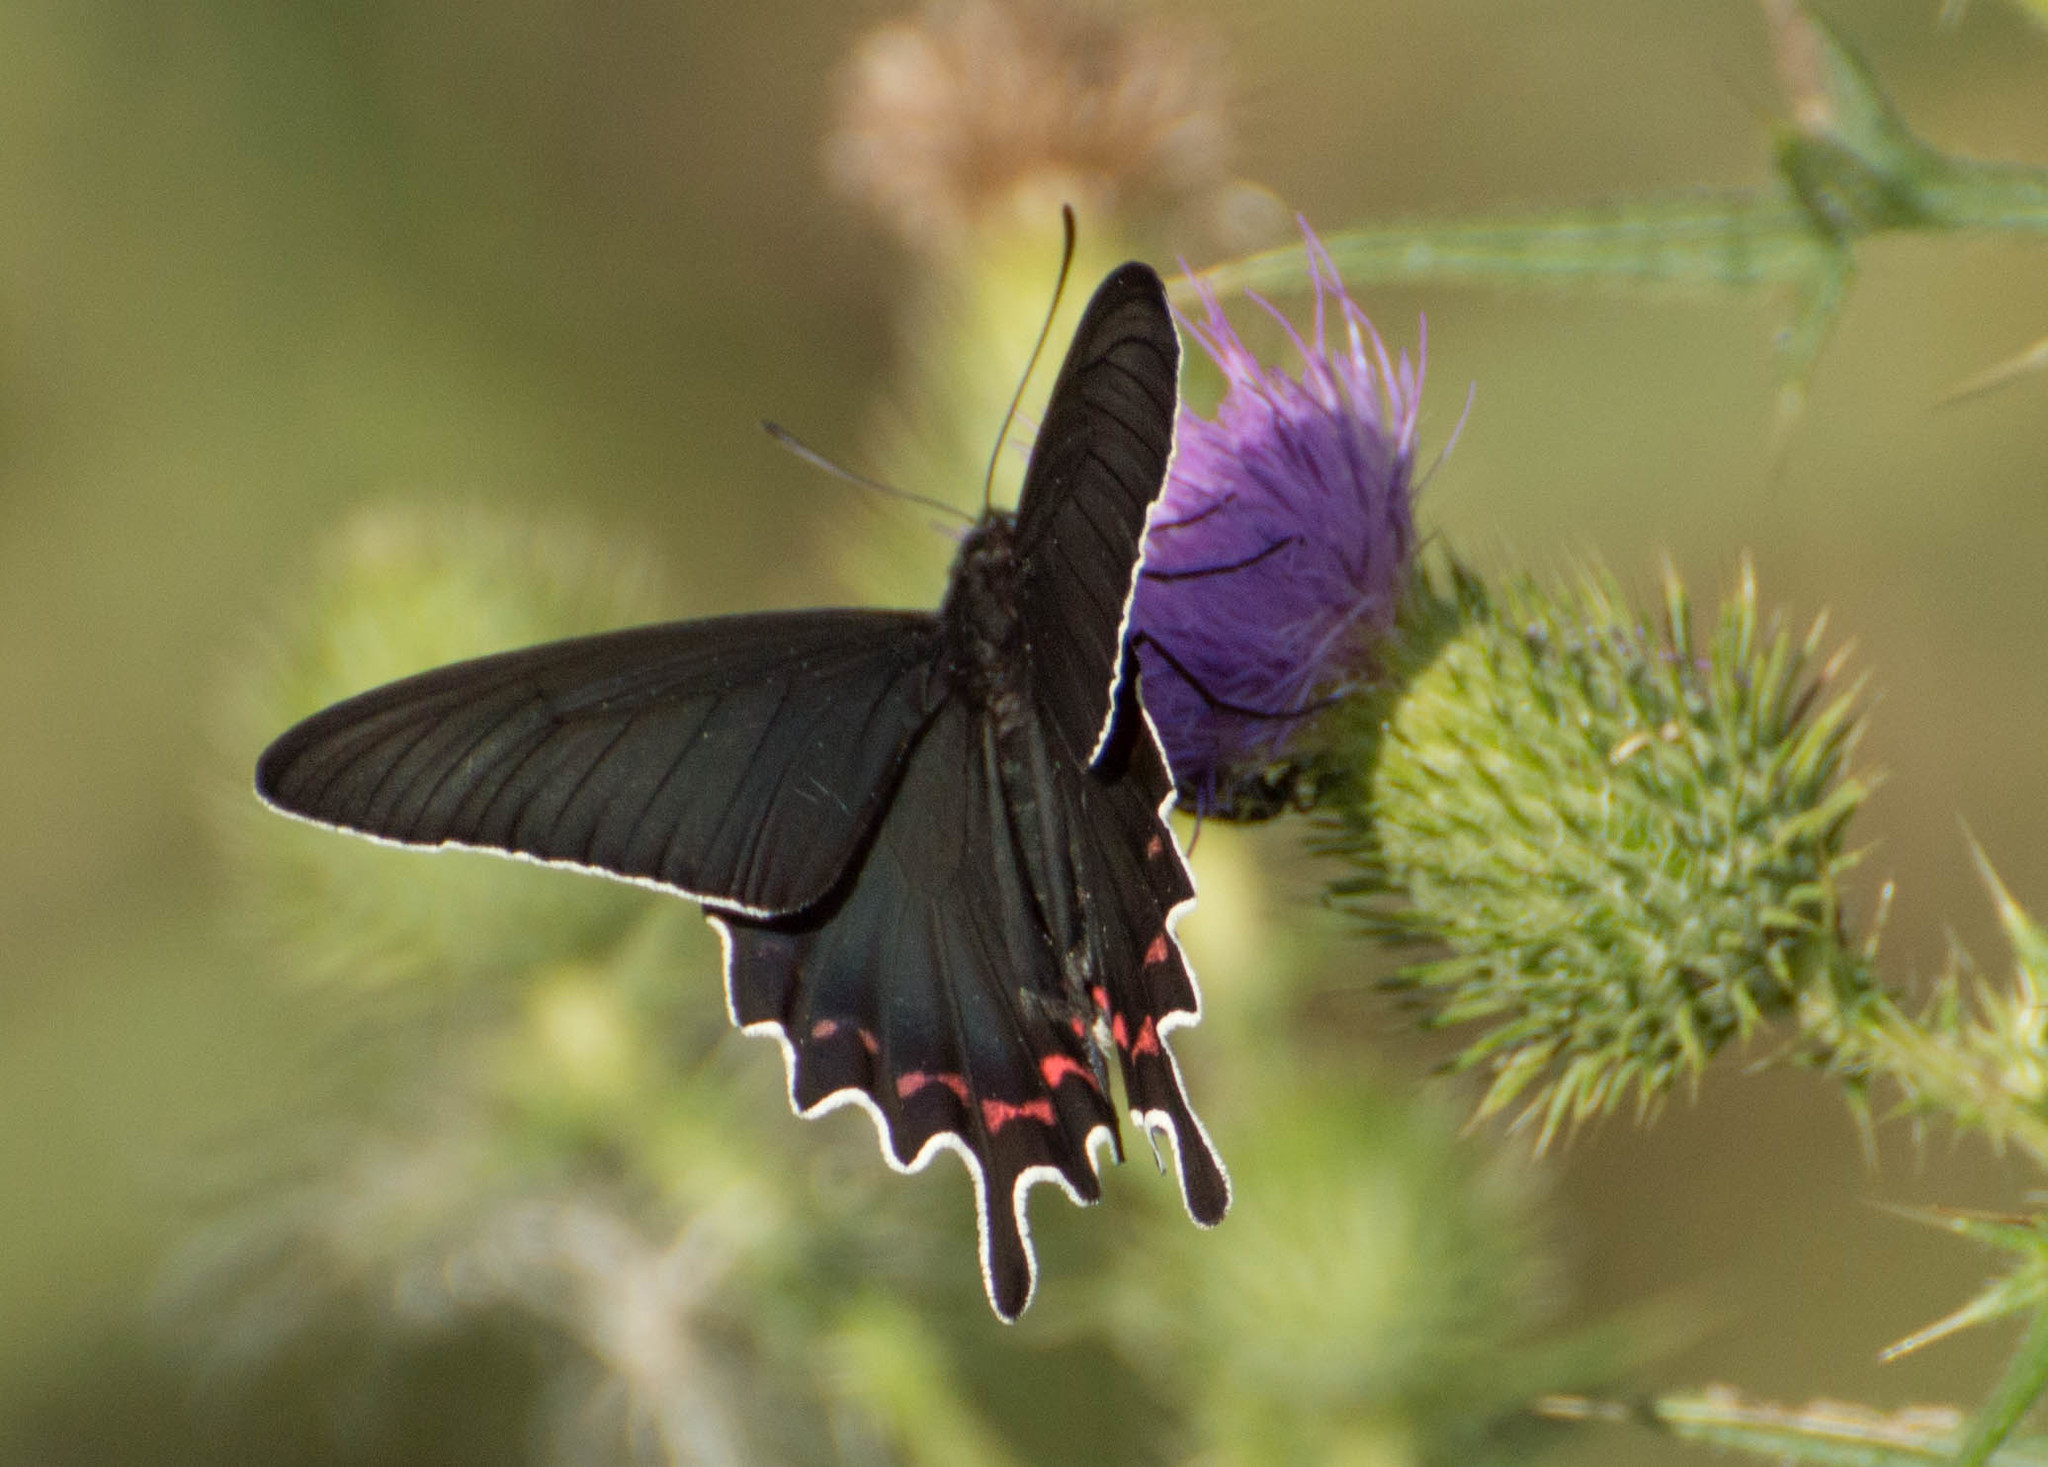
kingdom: Animalia
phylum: Arthropoda
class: Insecta
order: Lepidoptera
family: Papilionidae
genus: Parides
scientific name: Parides bunichus
